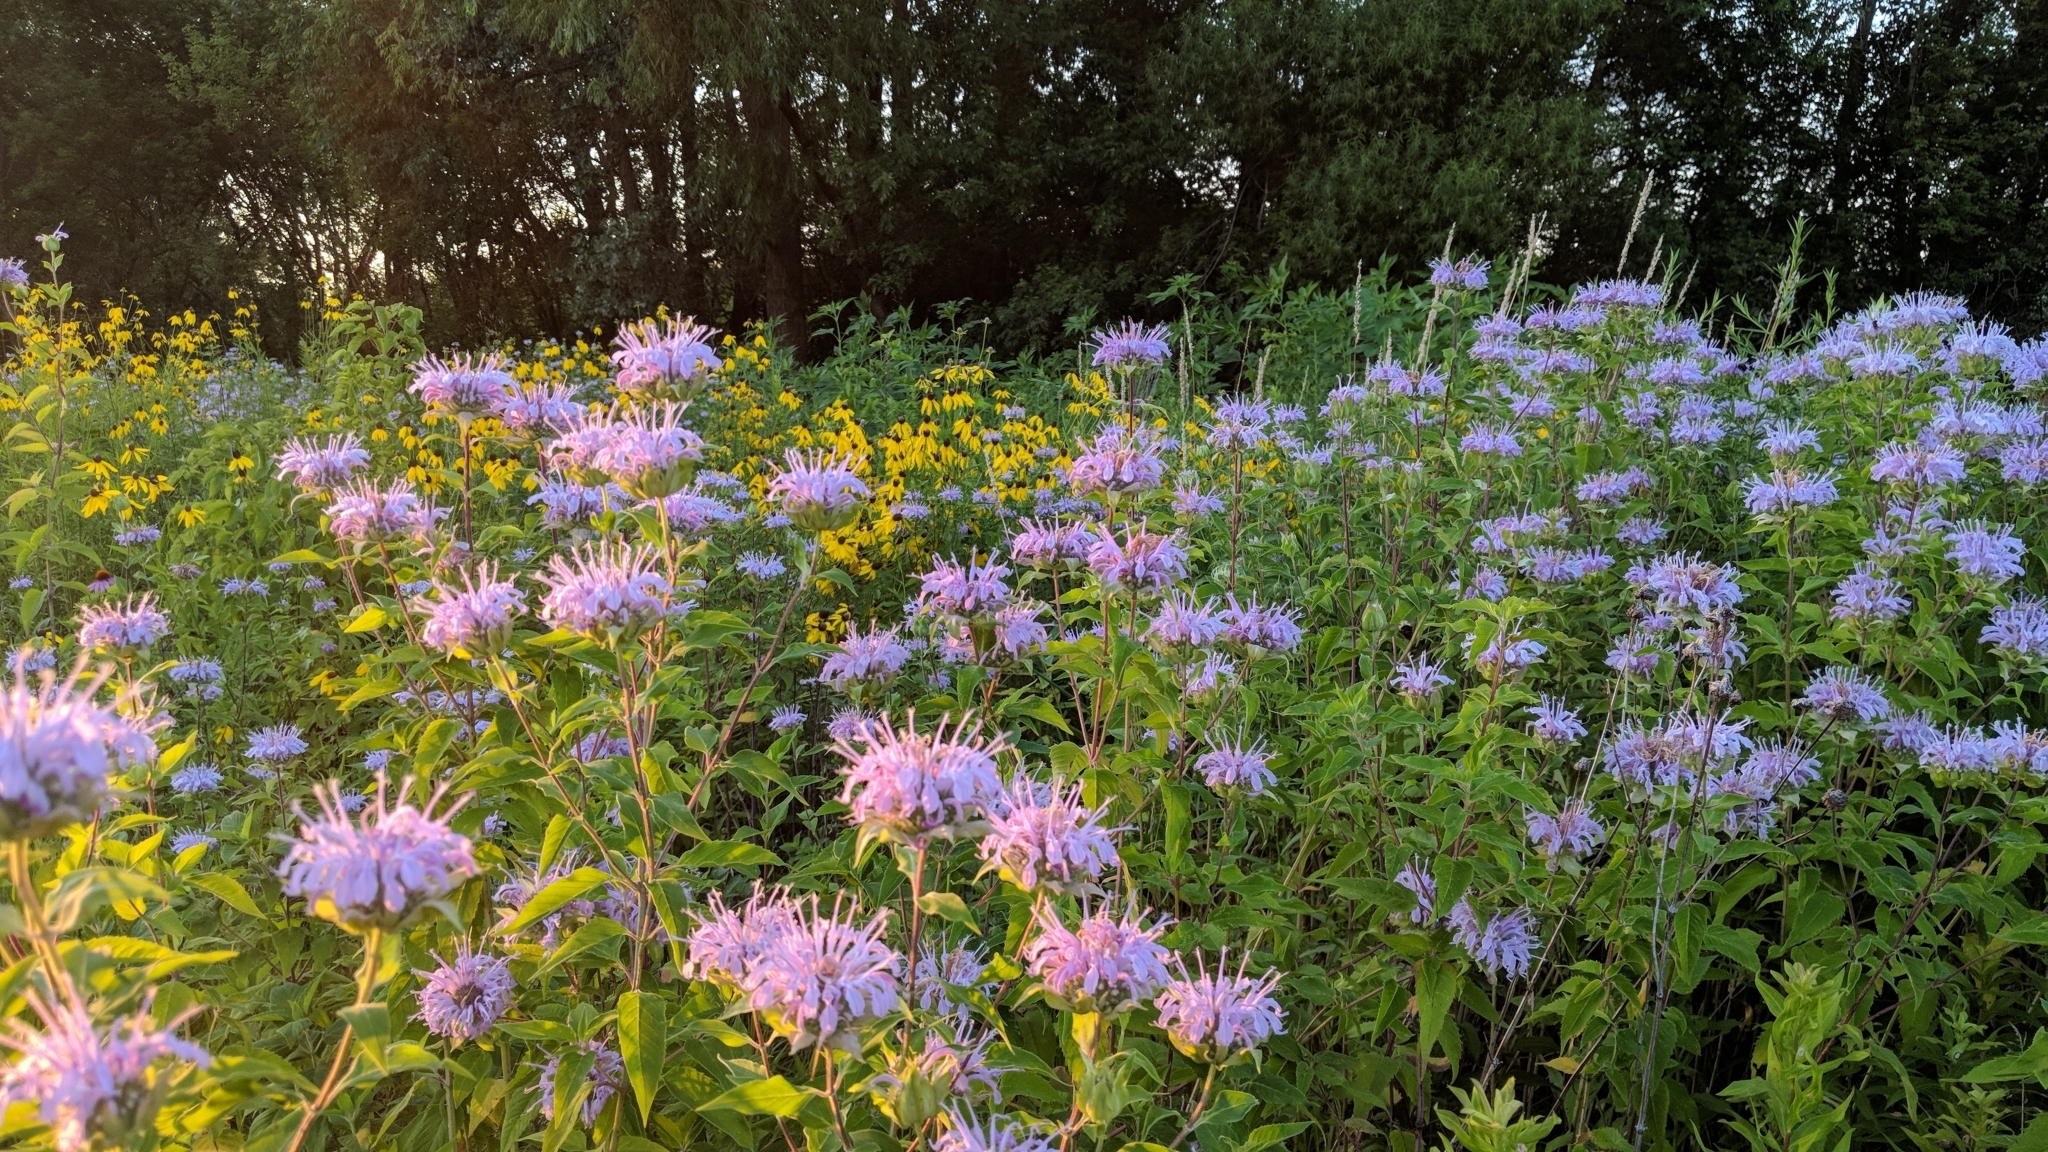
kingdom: Plantae
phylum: Tracheophyta
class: Magnoliopsida
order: Lamiales
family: Lamiaceae
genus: Monarda
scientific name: Monarda fistulosa
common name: Purple beebalm
